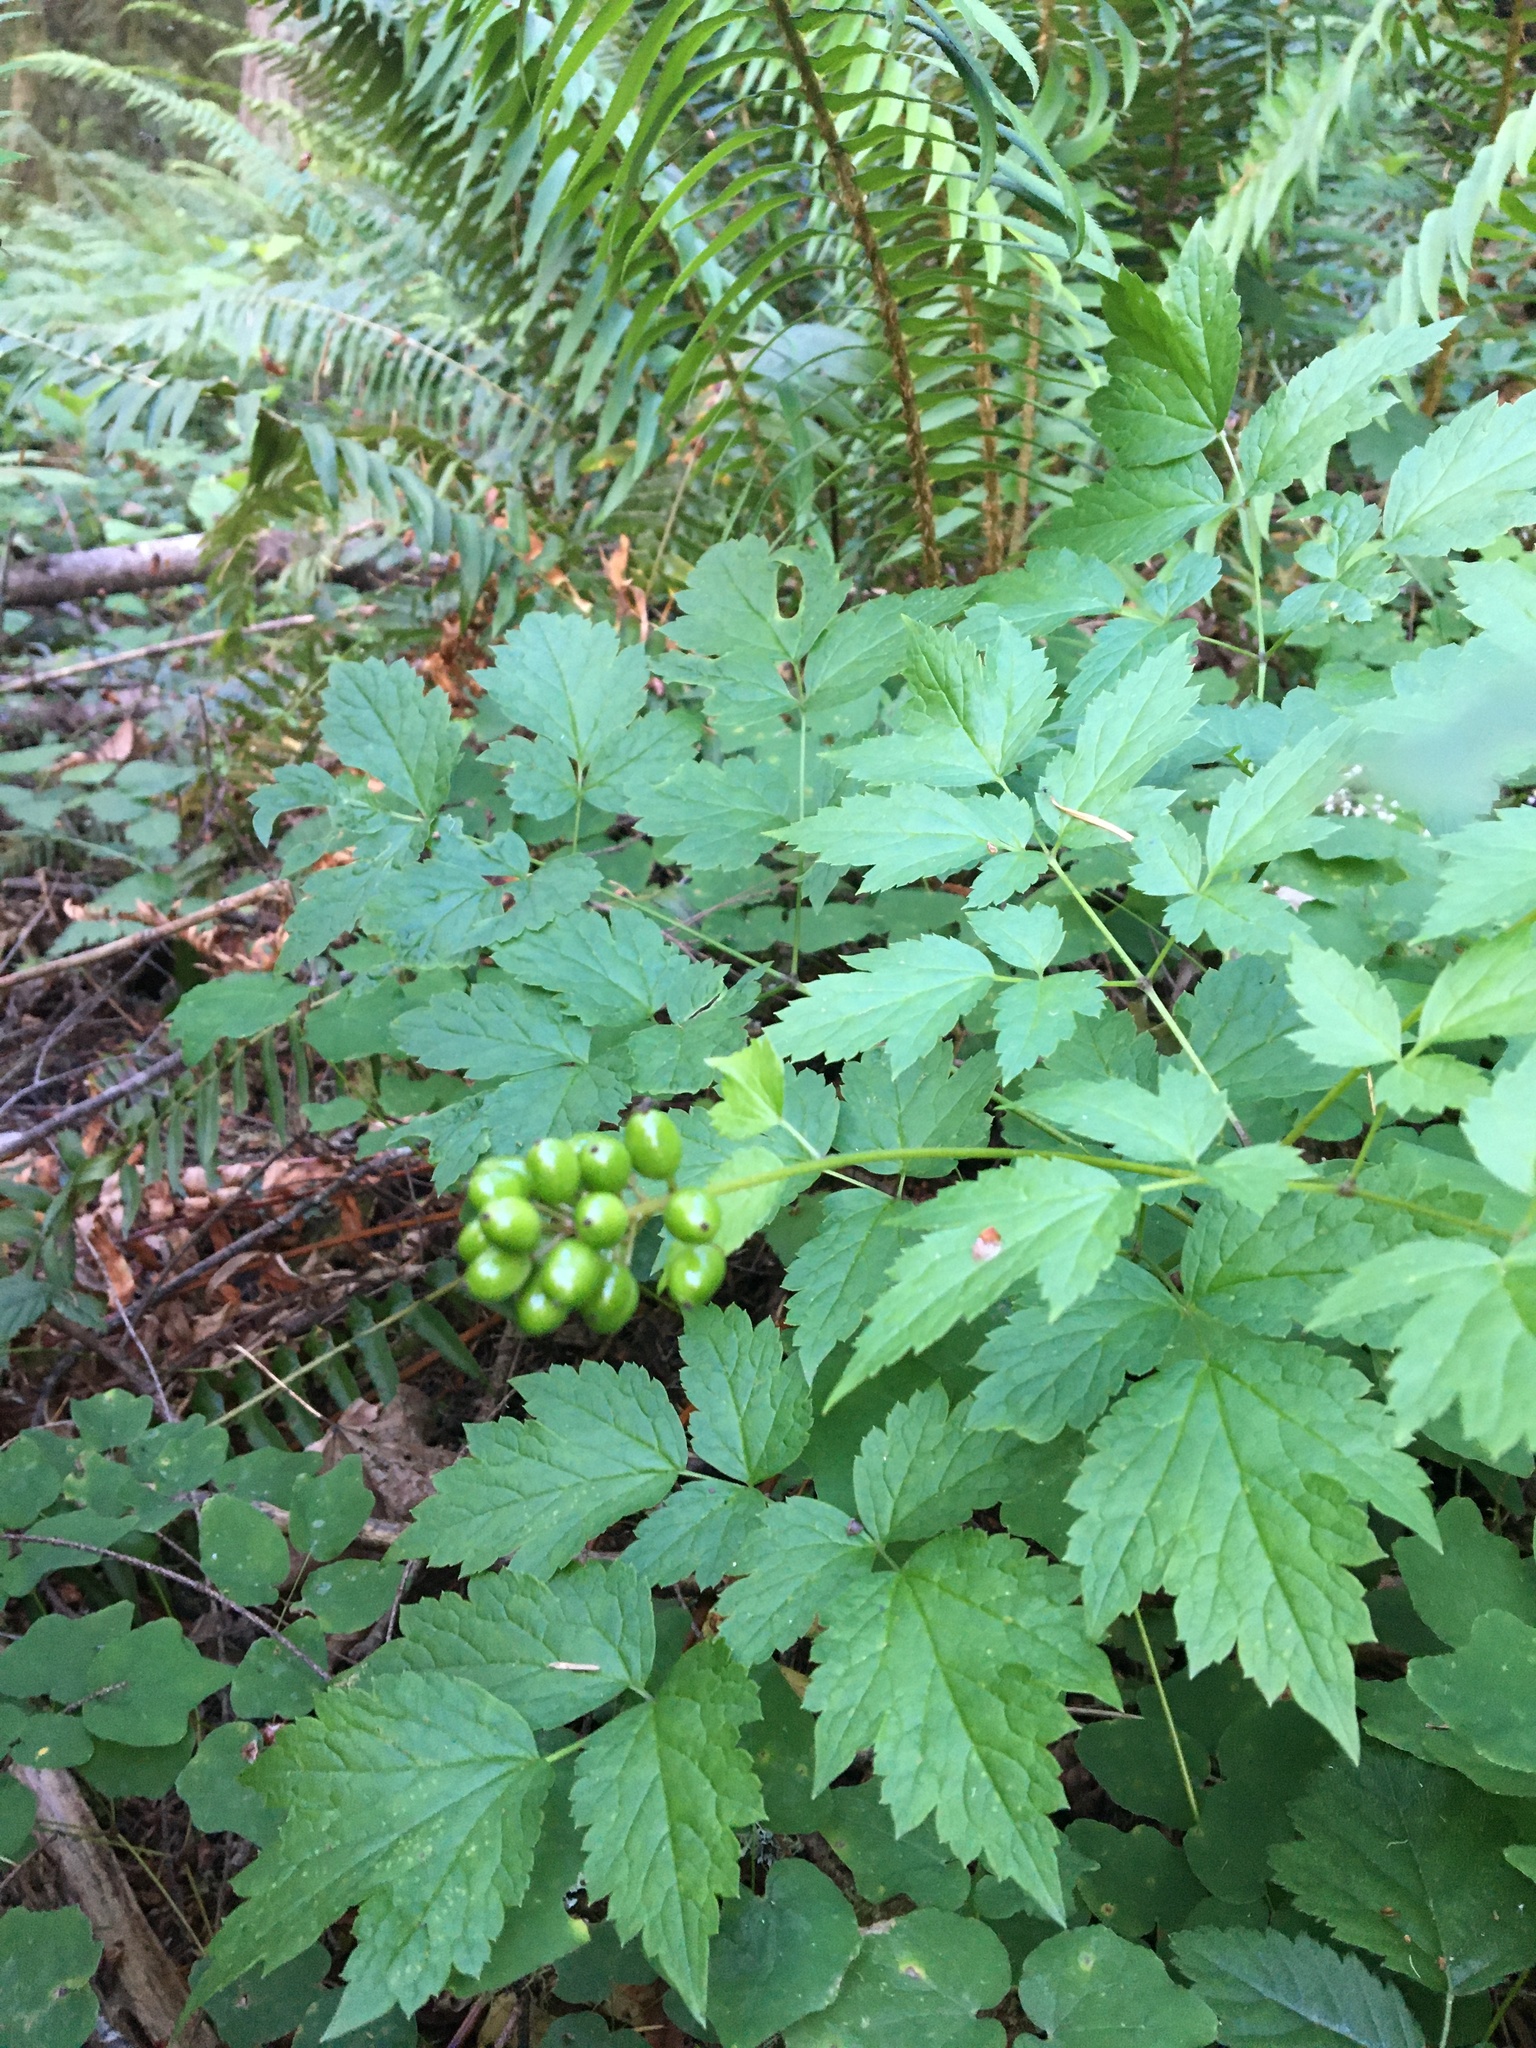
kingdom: Plantae
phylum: Tracheophyta
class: Magnoliopsida
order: Ranunculales
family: Ranunculaceae
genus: Actaea
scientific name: Actaea rubra
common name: Red baneberry
